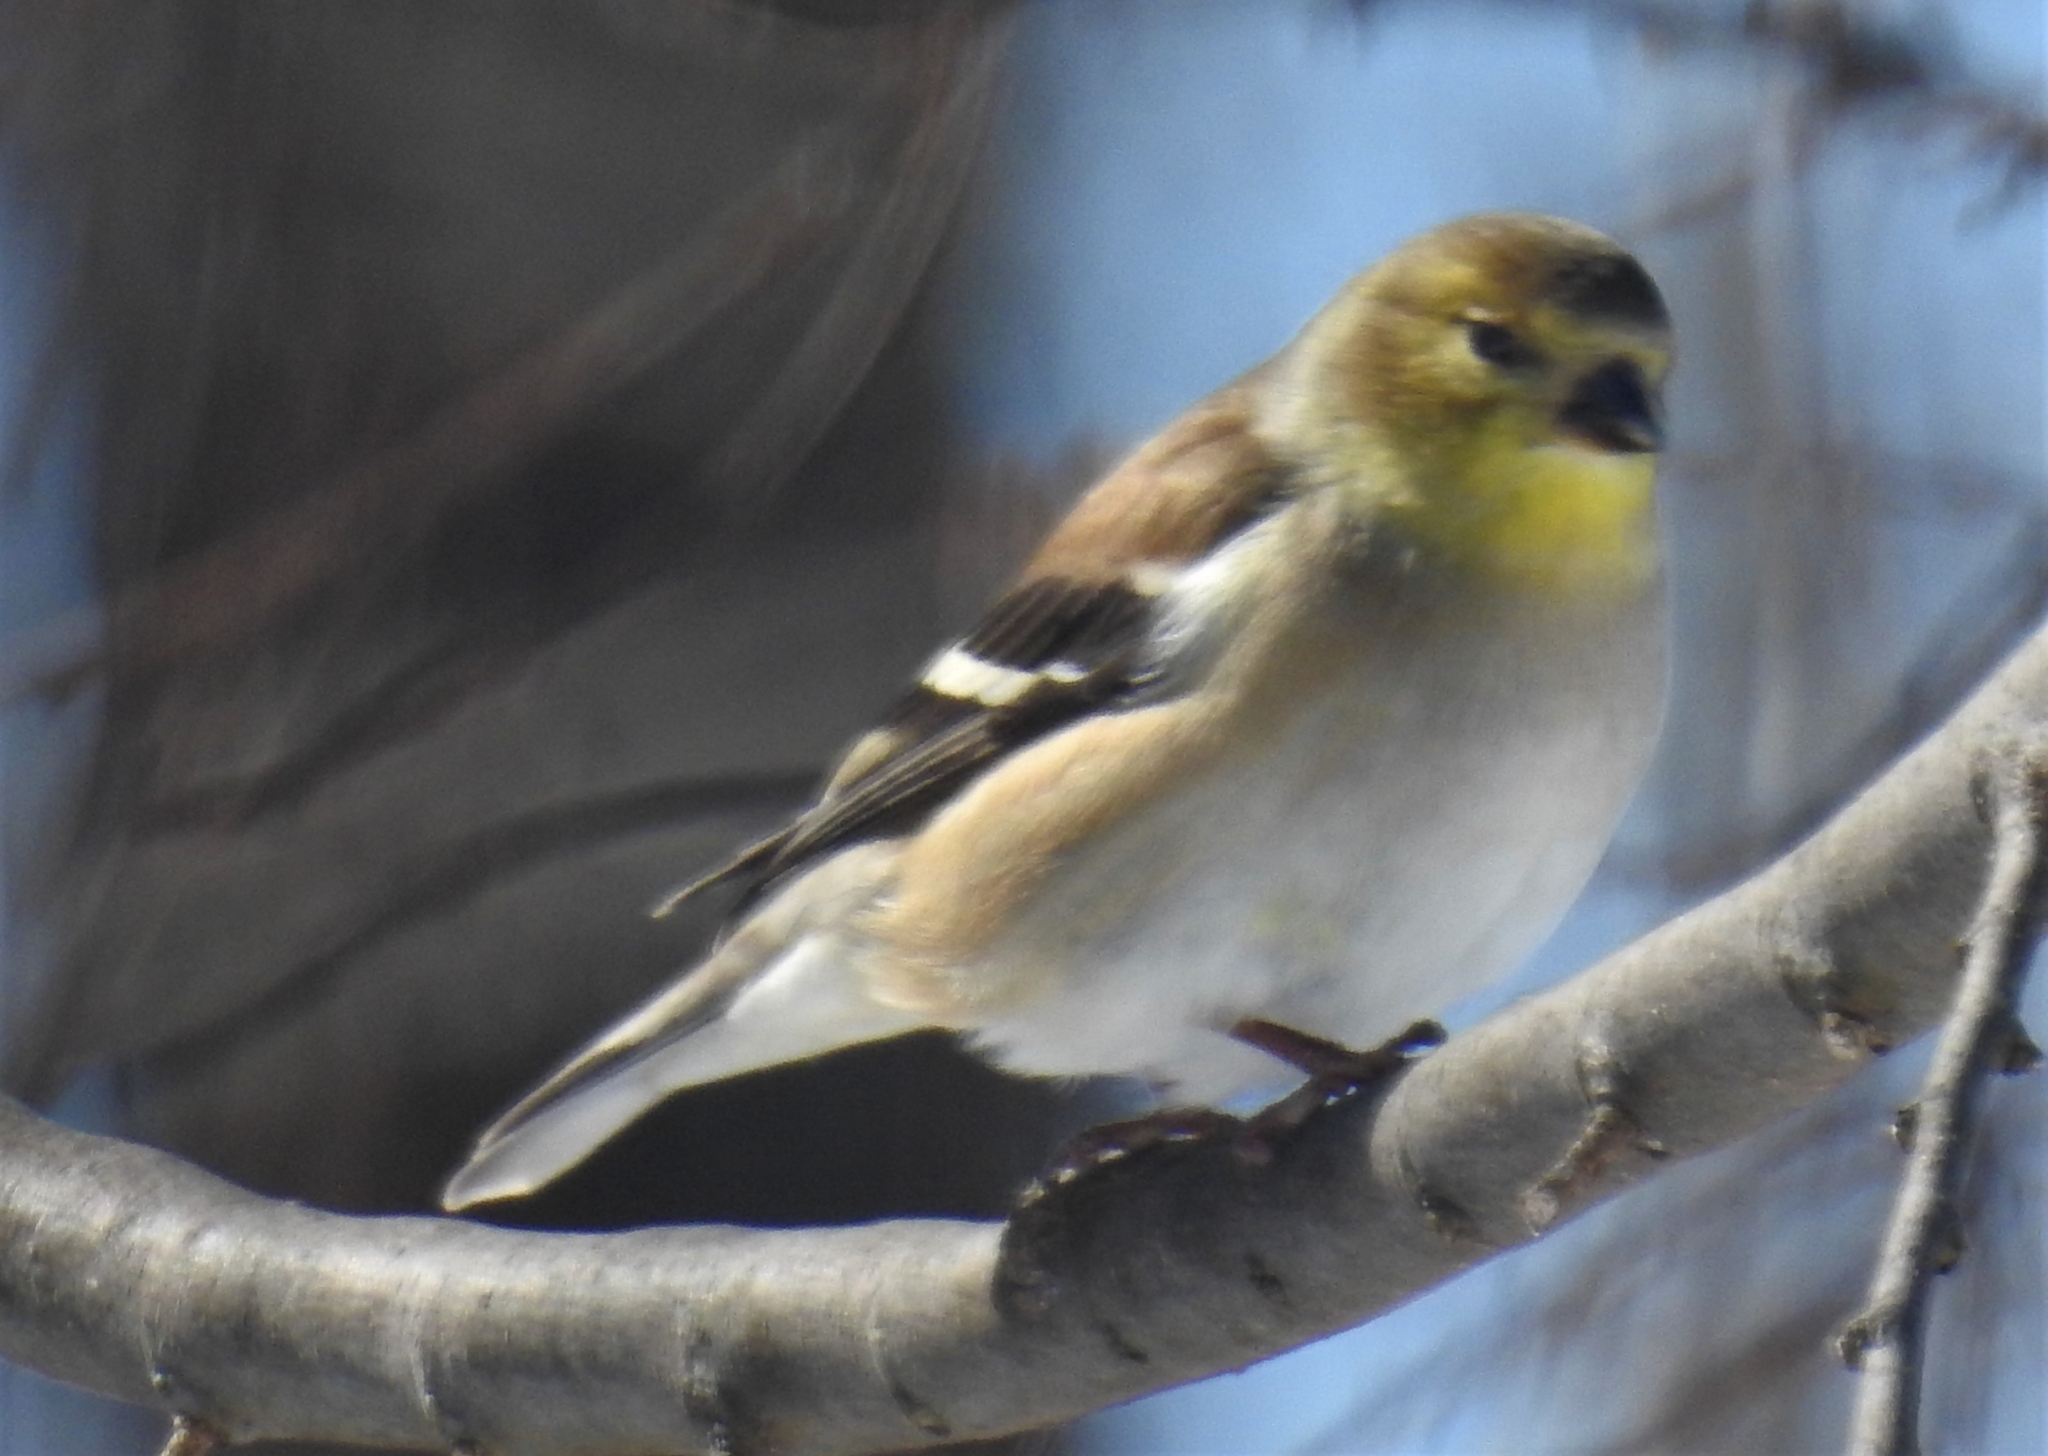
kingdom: Animalia
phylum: Chordata
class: Aves
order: Passeriformes
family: Fringillidae
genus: Spinus
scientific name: Spinus tristis
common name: American goldfinch
